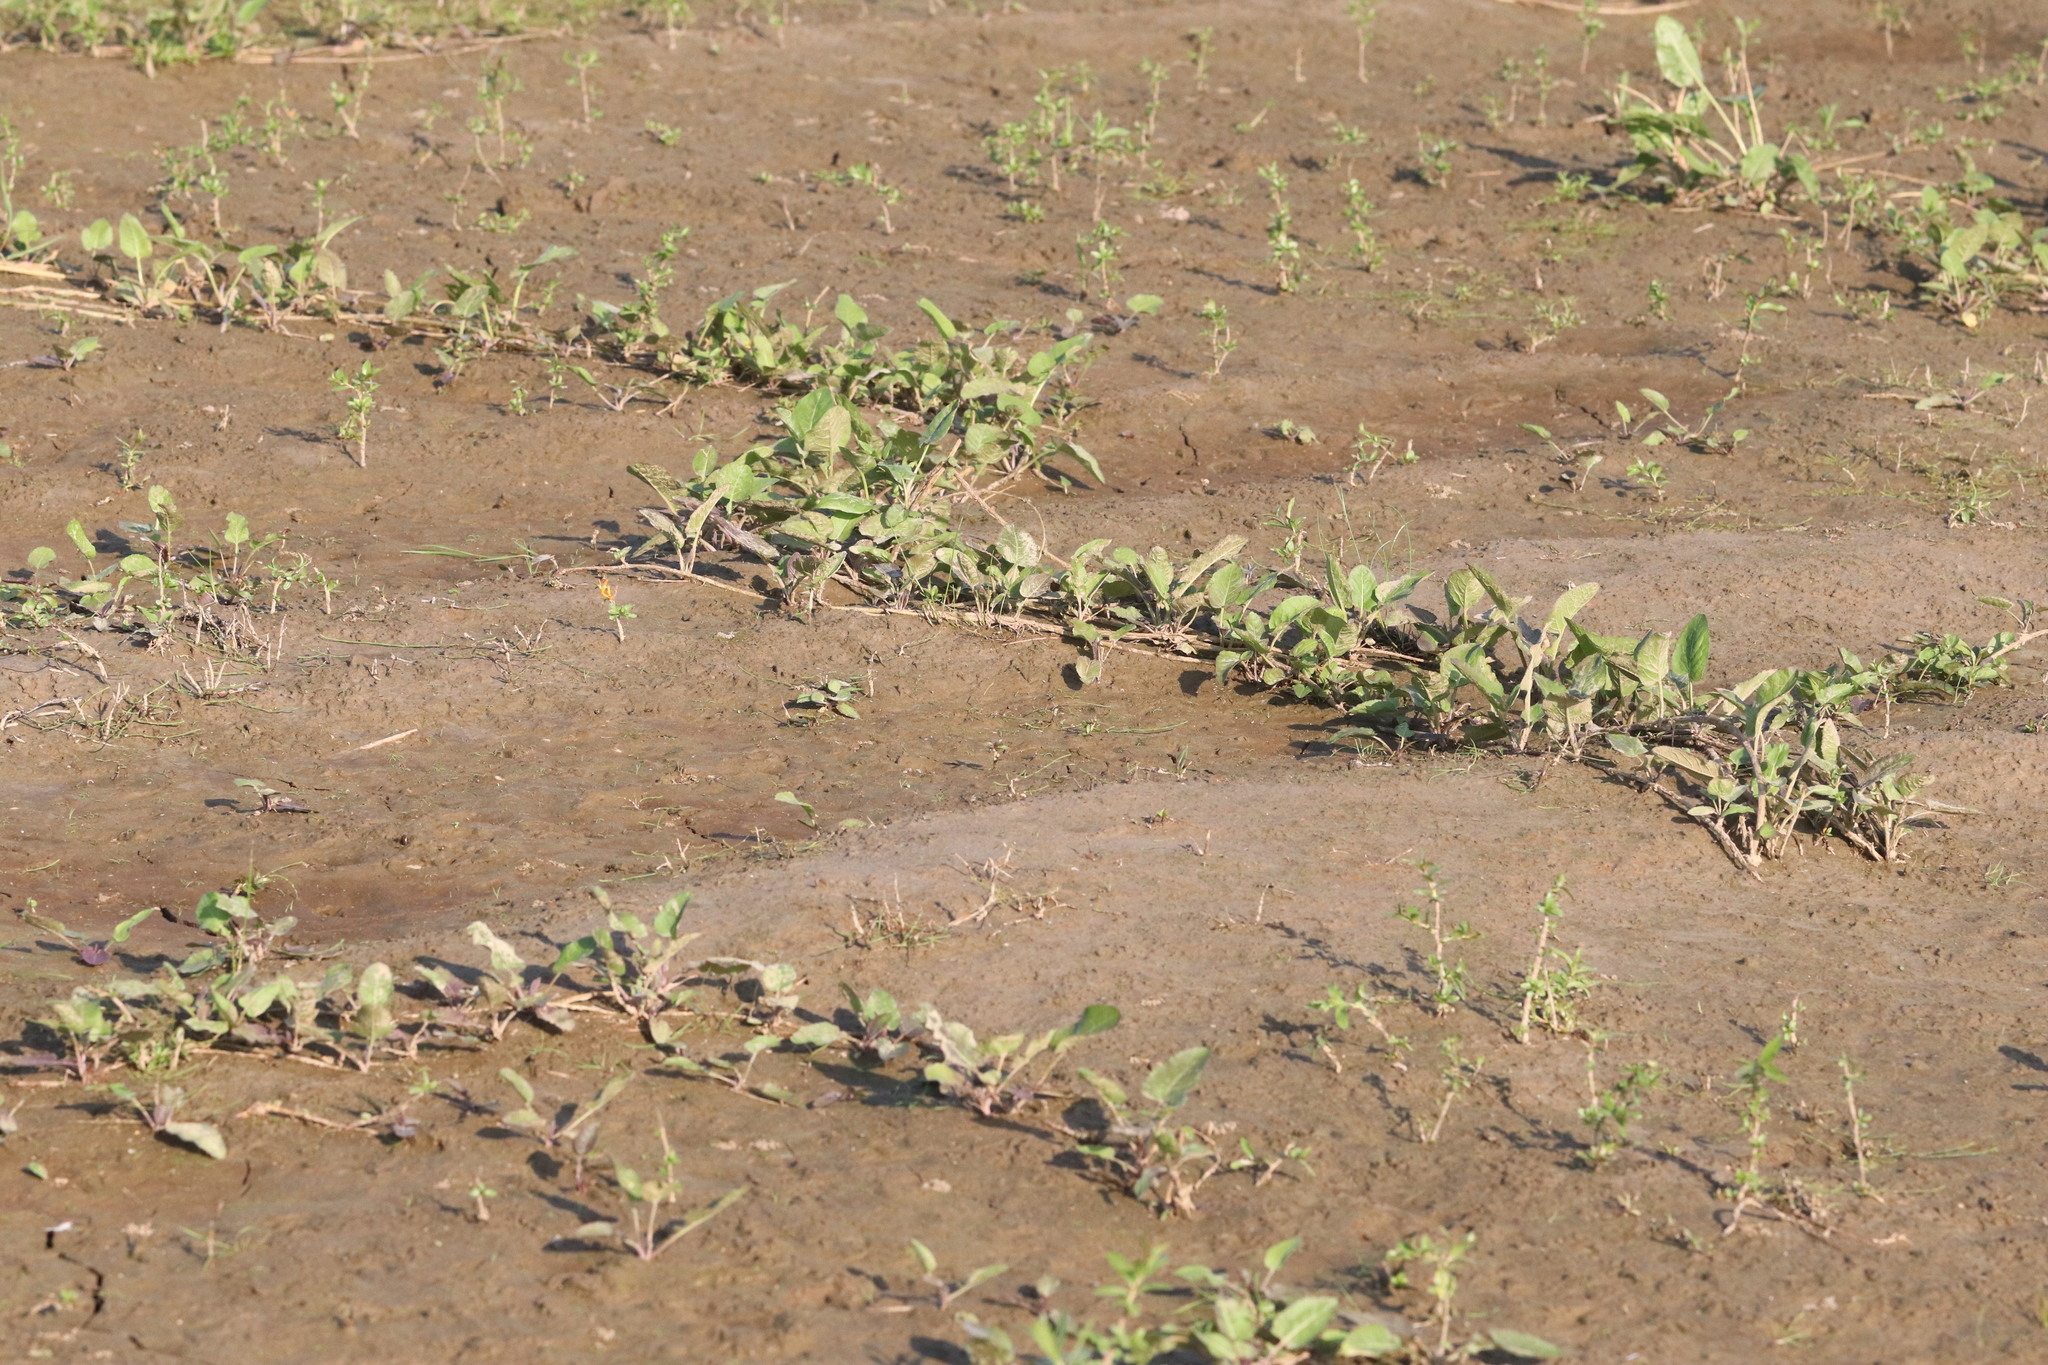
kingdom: Plantae
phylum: Tracheophyta
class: Magnoliopsida
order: Brassicales
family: Brassicaceae
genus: Rorippa
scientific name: Rorippa amphibia
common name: Great yellow-cress
